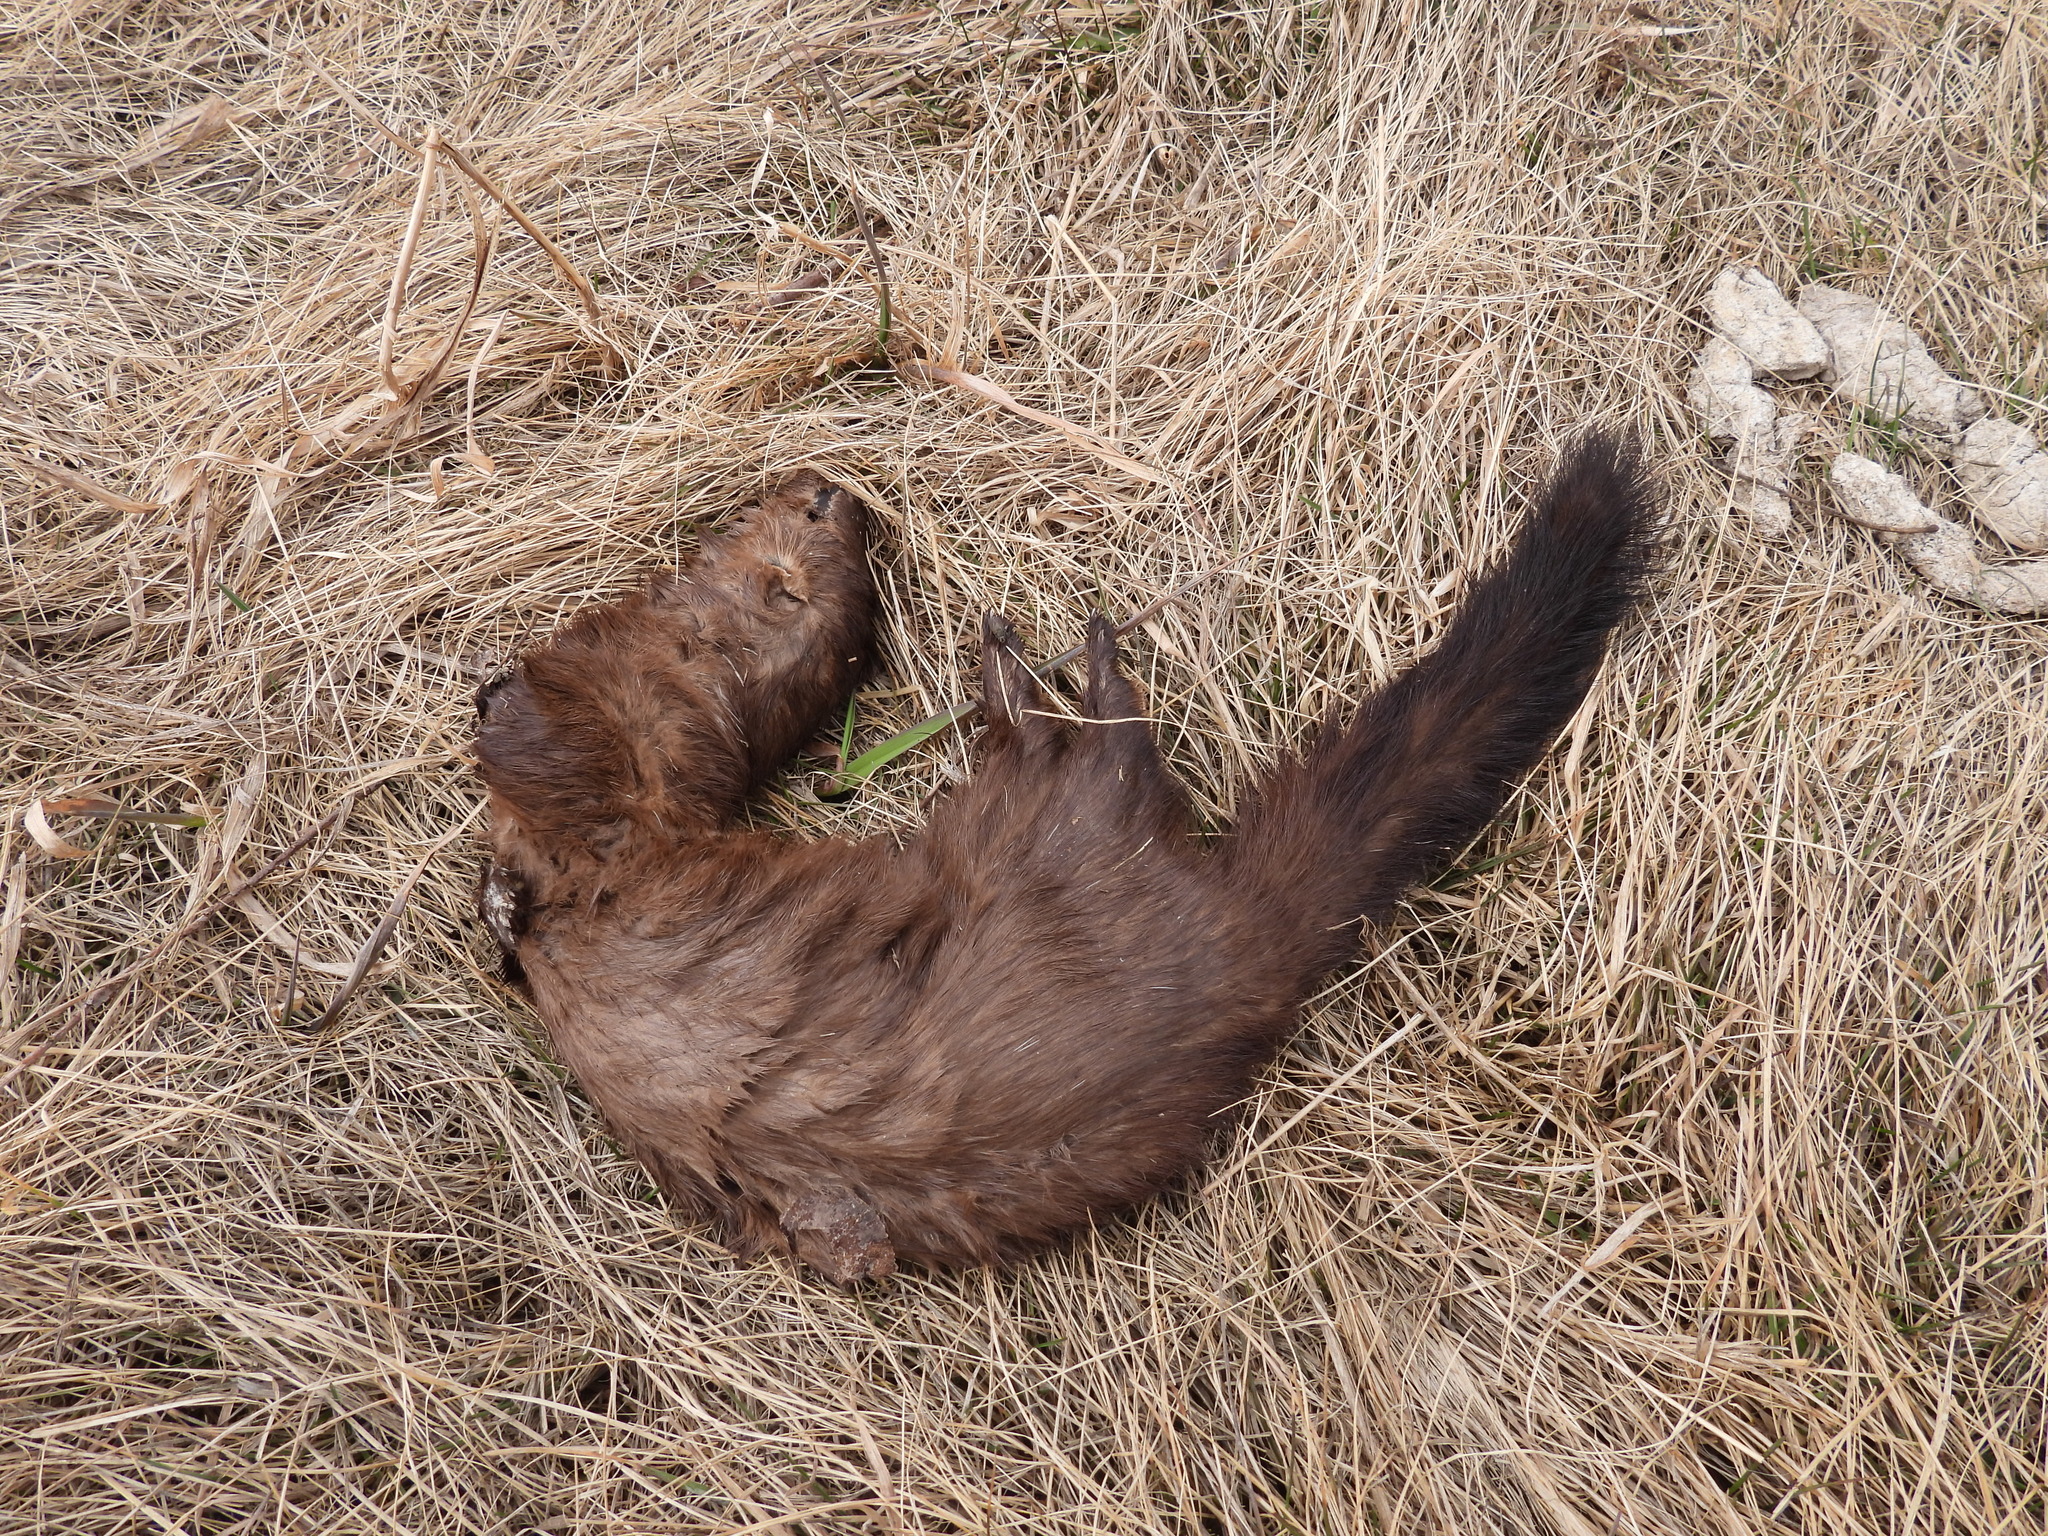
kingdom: Animalia
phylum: Chordata
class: Mammalia
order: Carnivora
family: Mustelidae
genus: Mustela
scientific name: Mustela
